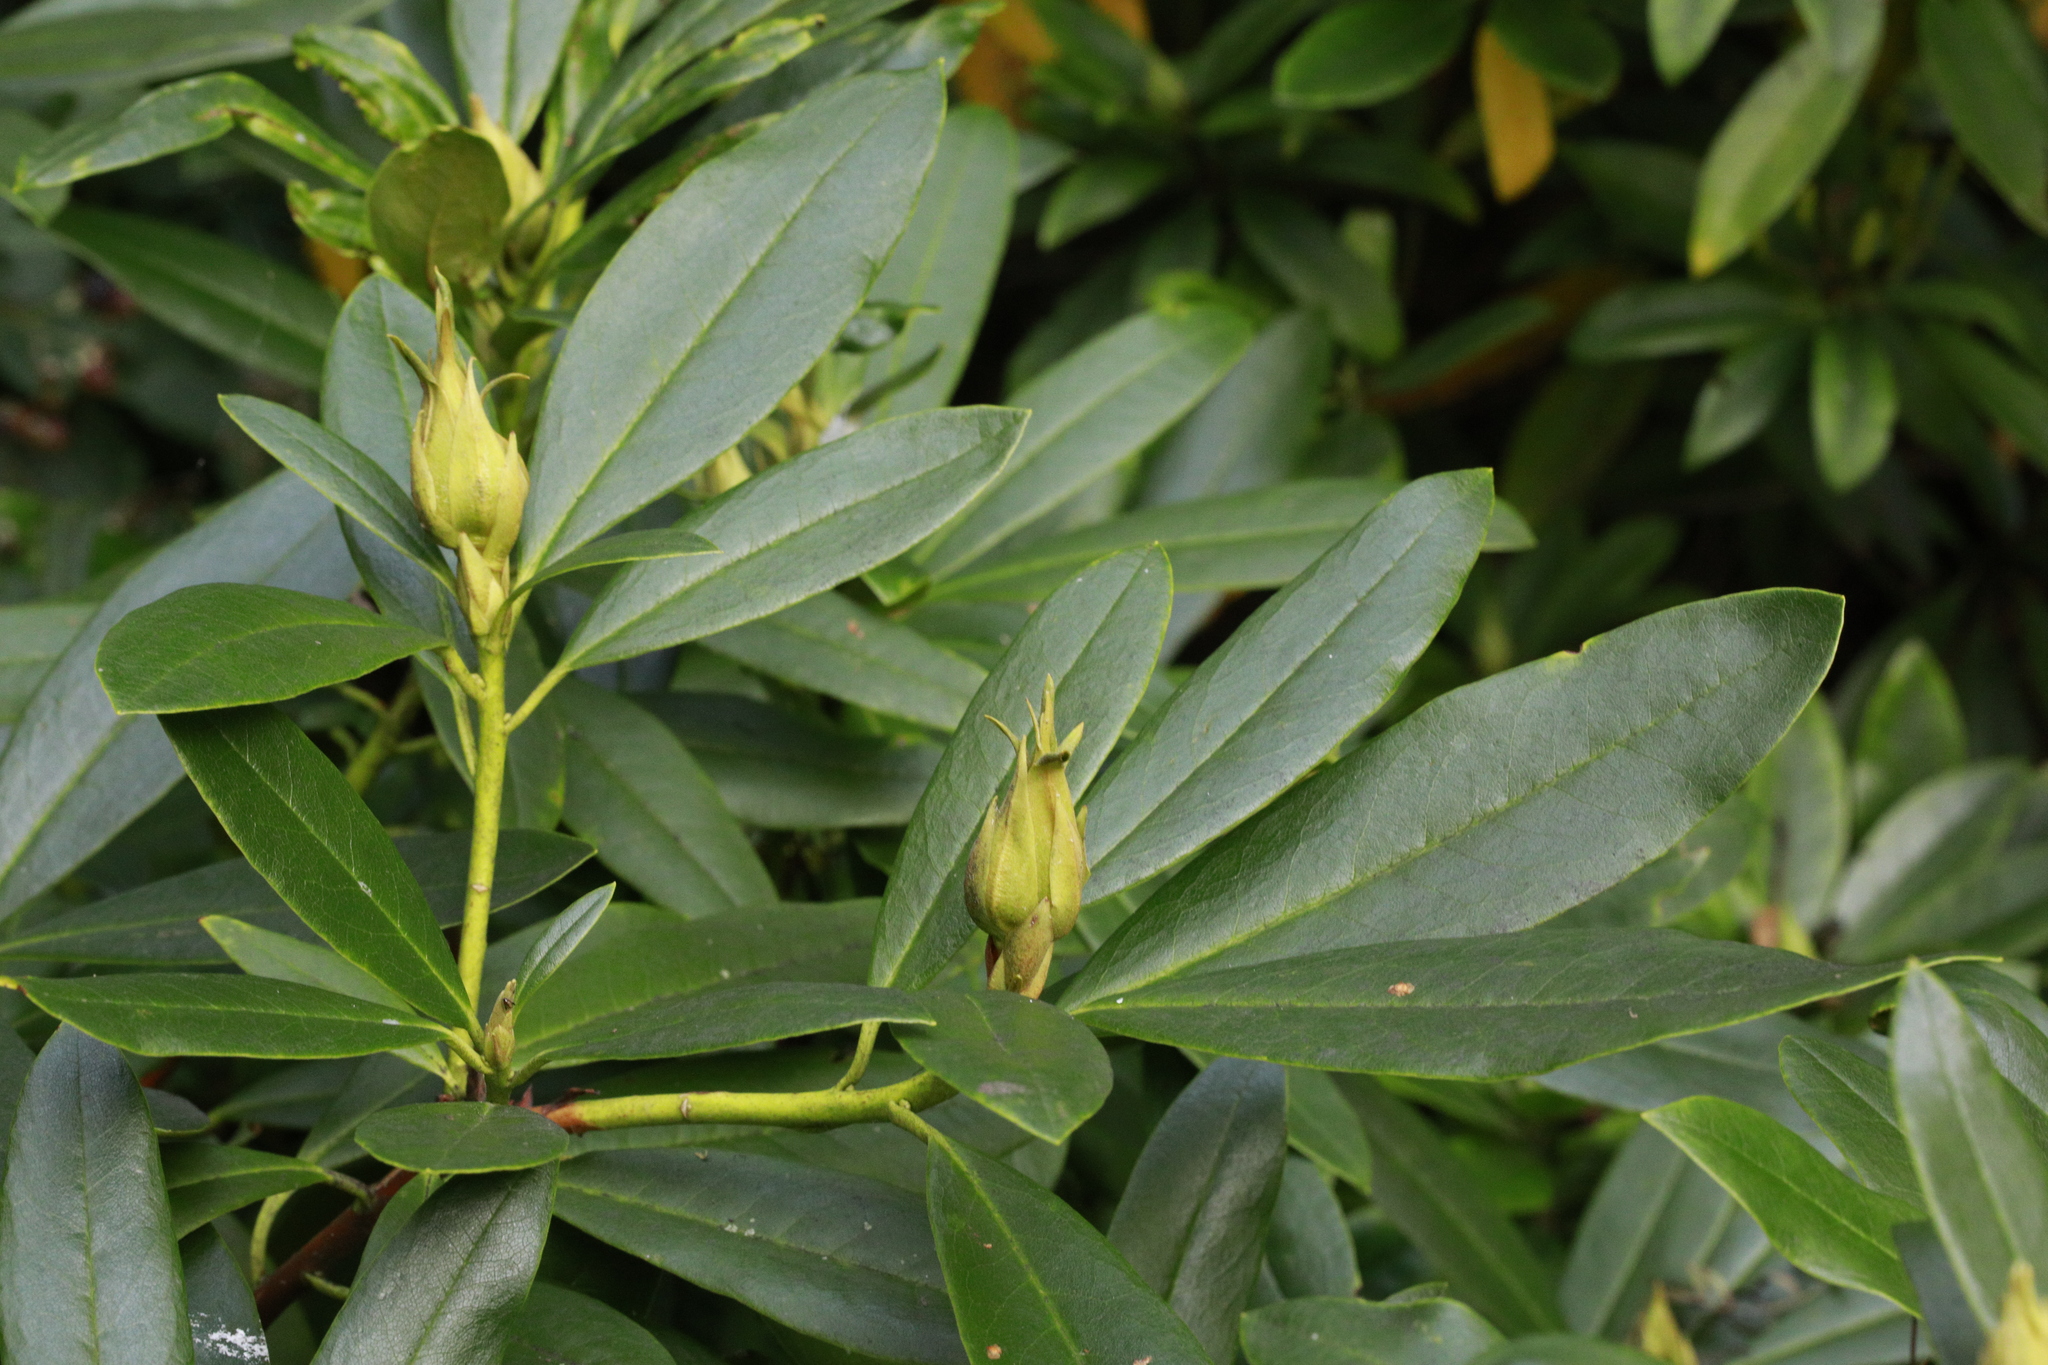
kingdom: Plantae
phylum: Tracheophyta
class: Magnoliopsida
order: Ericales
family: Ericaceae
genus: Rhododendron
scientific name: Rhododendron ponticum
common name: Rhododendron
